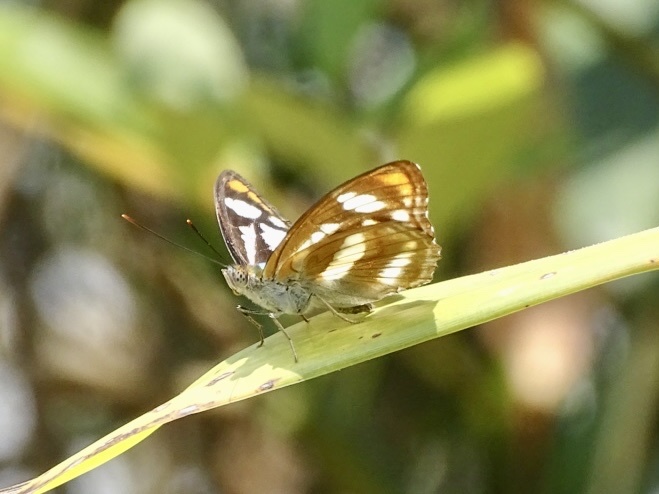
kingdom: Animalia
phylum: Arthropoda
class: Insecta
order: Lepidoptera
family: Nymphalidae
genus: Parathyma
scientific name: Parathyma nefte
